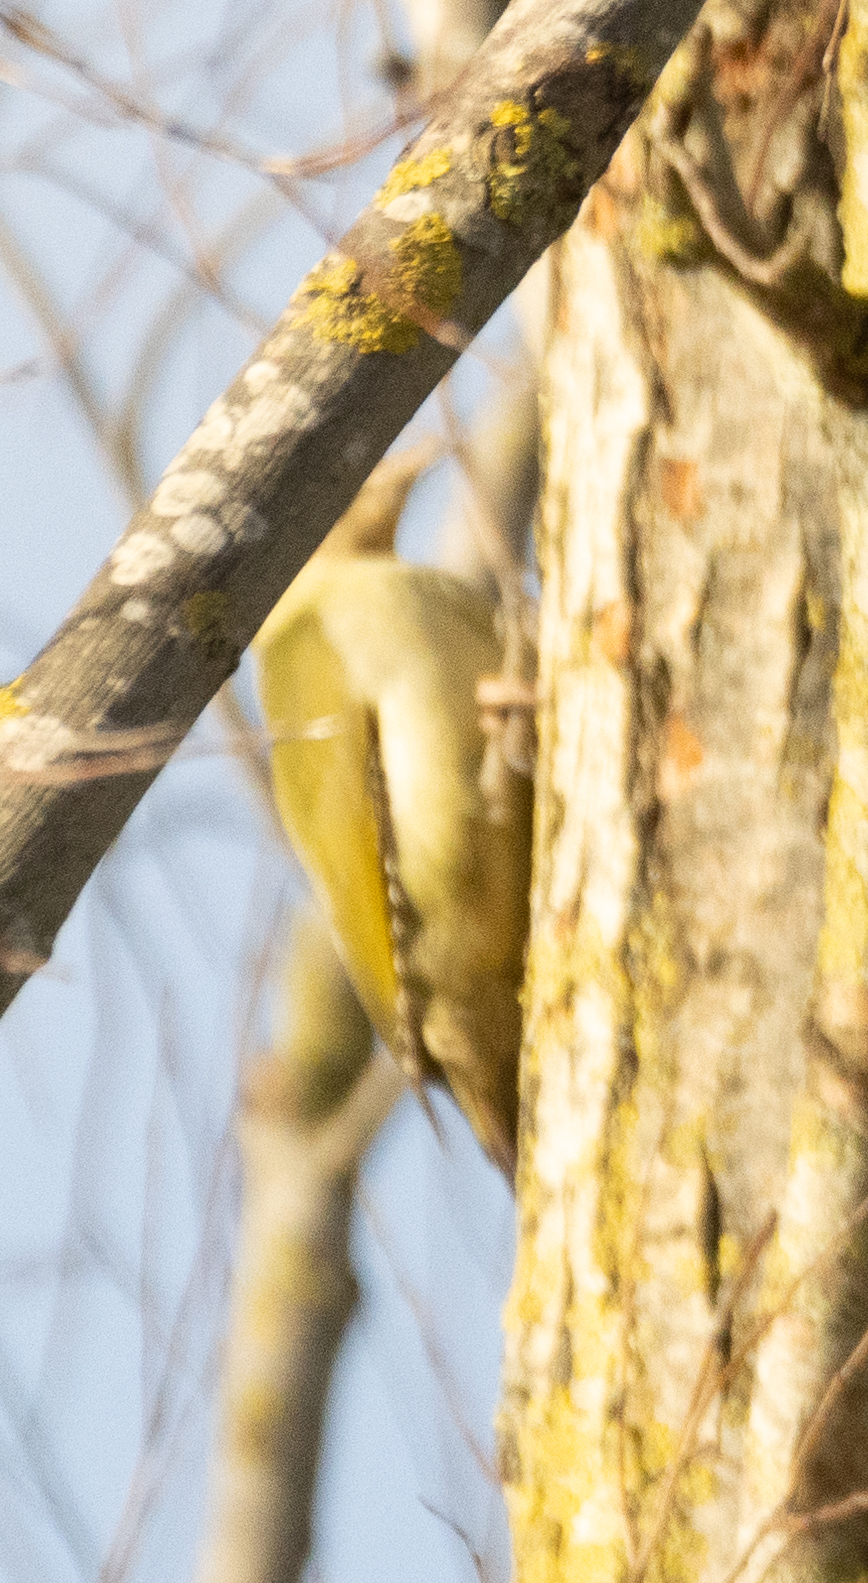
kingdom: Animalia
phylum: Chordata
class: Aves
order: Piciformes
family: Picidae
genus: Picus
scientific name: Picus viridis
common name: European green woodpecker
